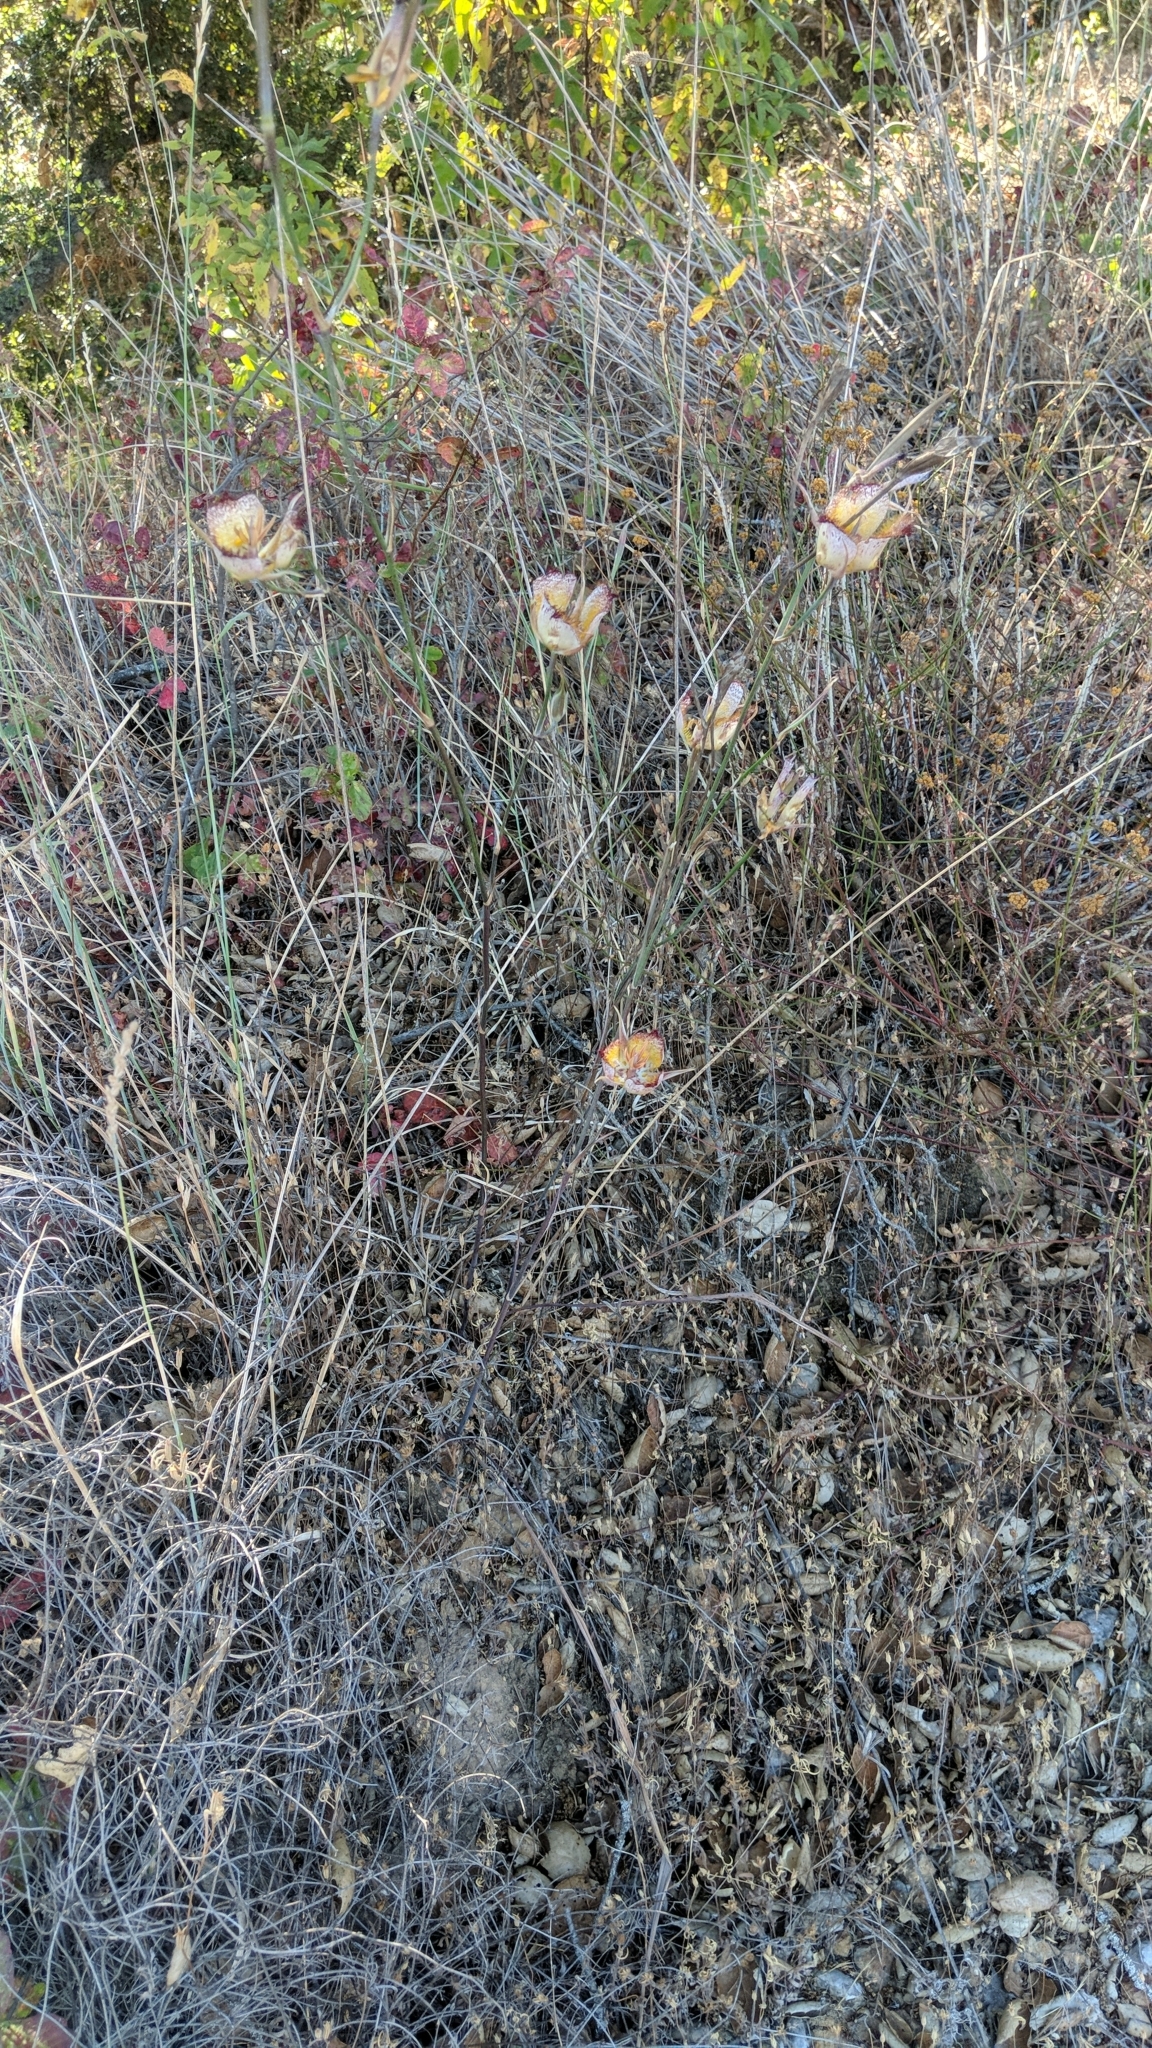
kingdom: Plantae
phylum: Tracheophyta
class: Liliopsida
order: Liliales
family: Liliaceae
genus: Calochortus
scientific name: Calochortus fimbriatus
